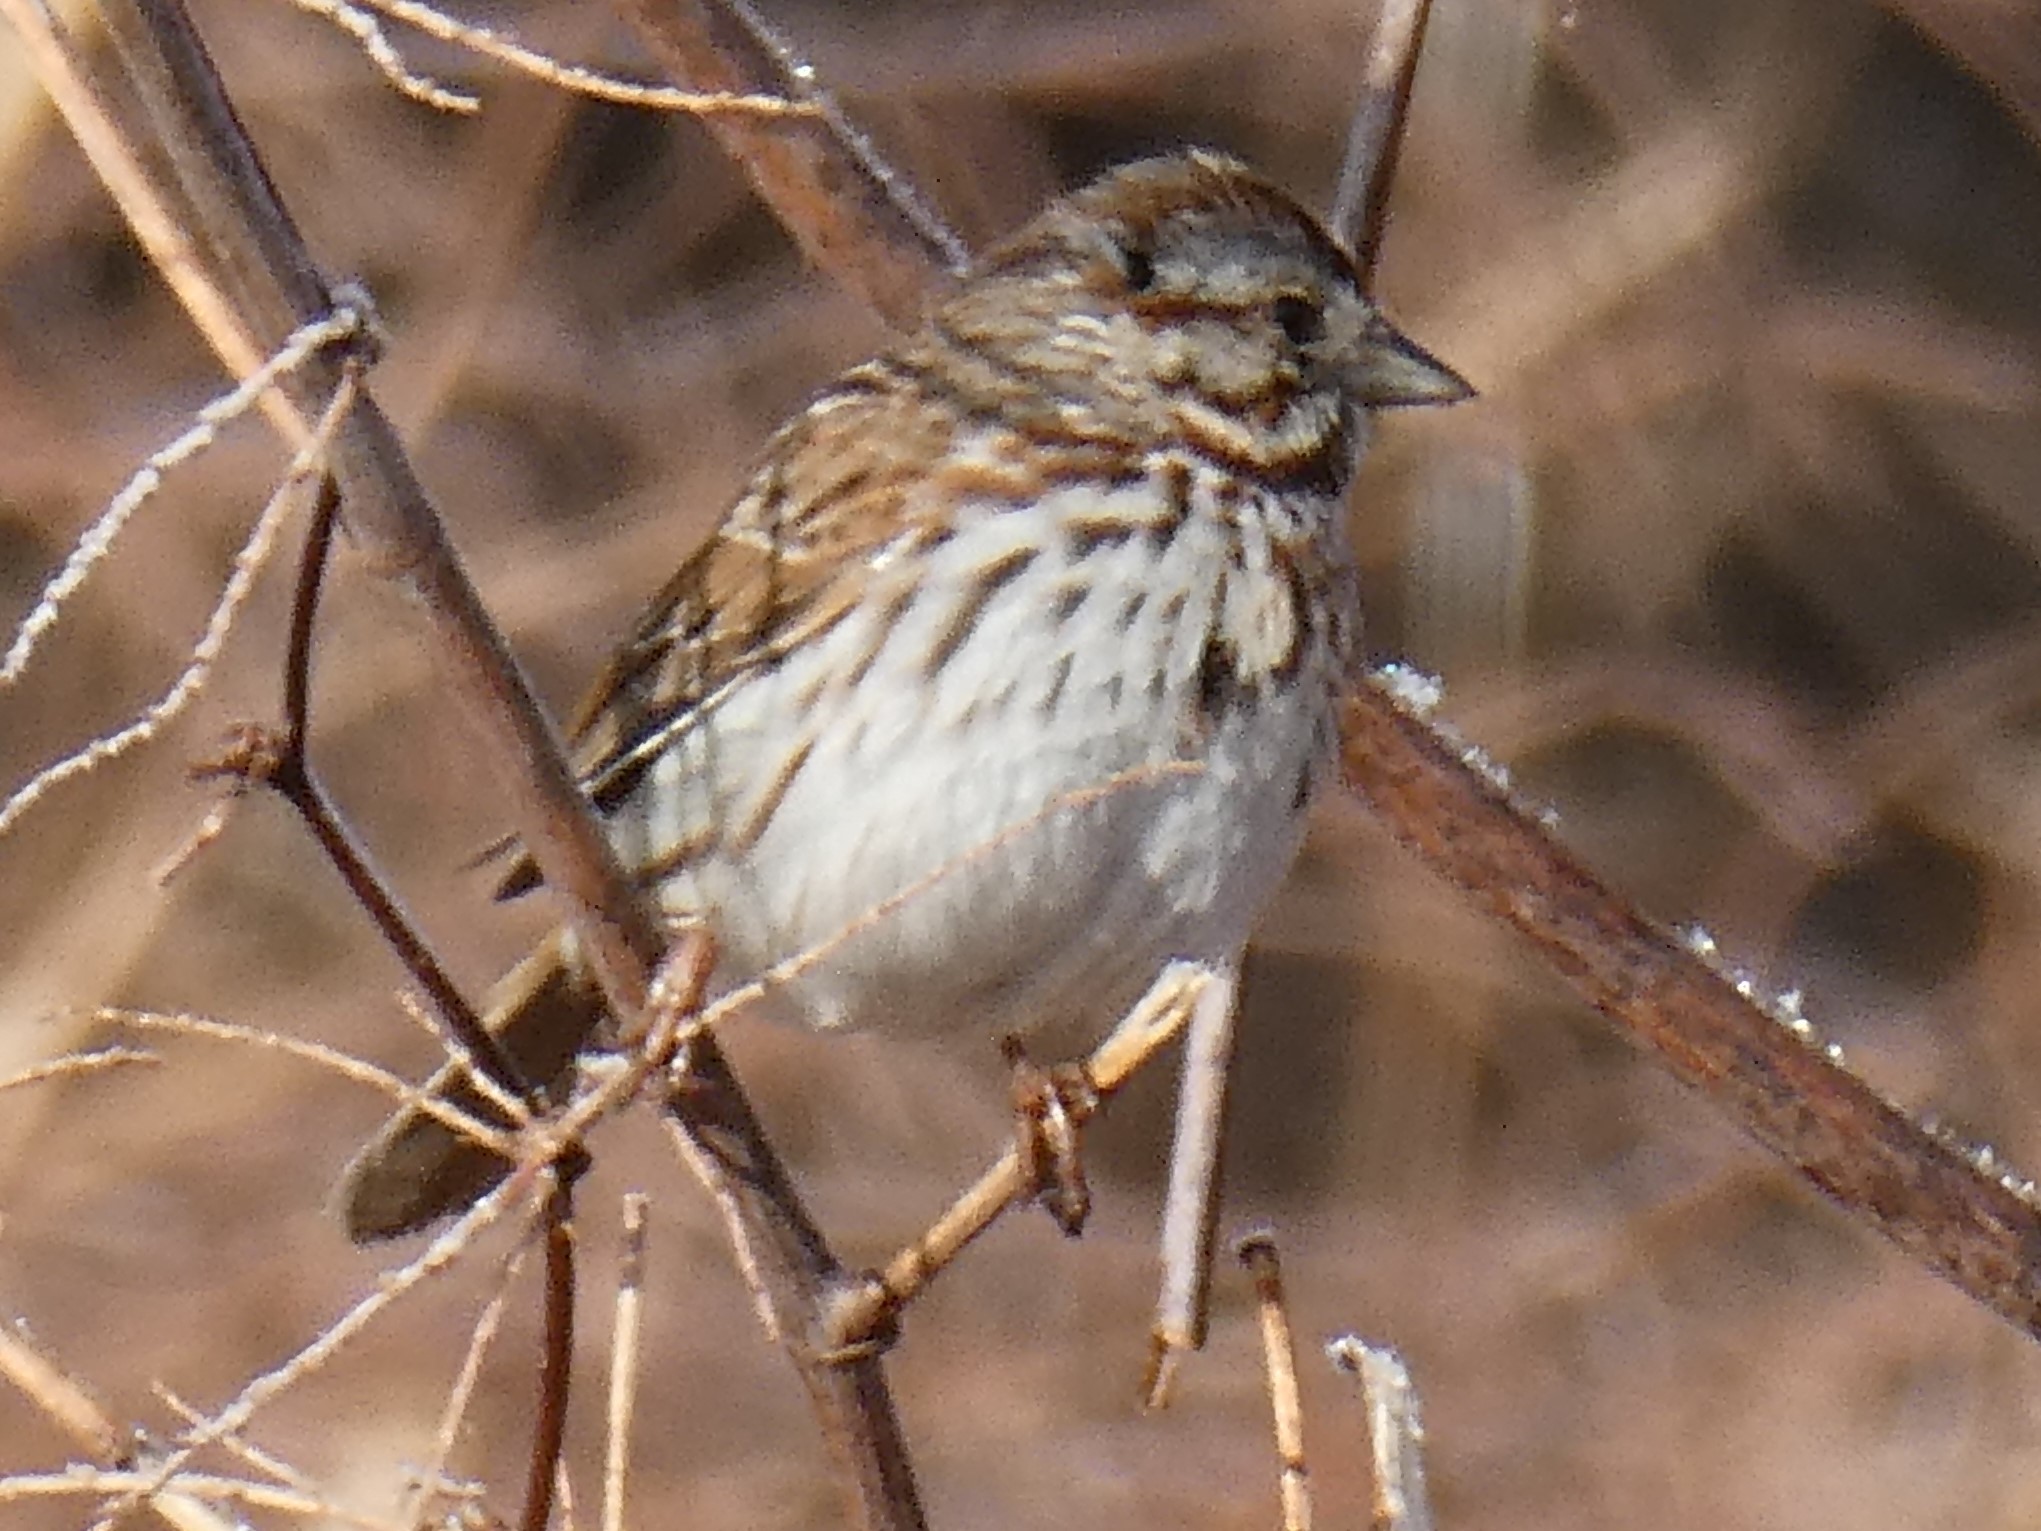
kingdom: Animalia
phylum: Chordata
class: Aves
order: Passeriformes
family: Passerellidae
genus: Melospiza
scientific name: Melospiza melodia
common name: Song sparrow
